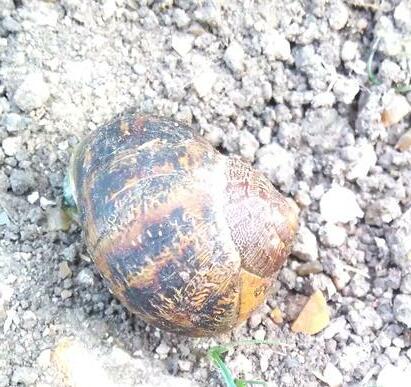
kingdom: Animalia
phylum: Mollusca
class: Gastropoda
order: Stylommatophora
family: Helicidae
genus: Cornu
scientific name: Cornu aspersum
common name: Brown garden snail
